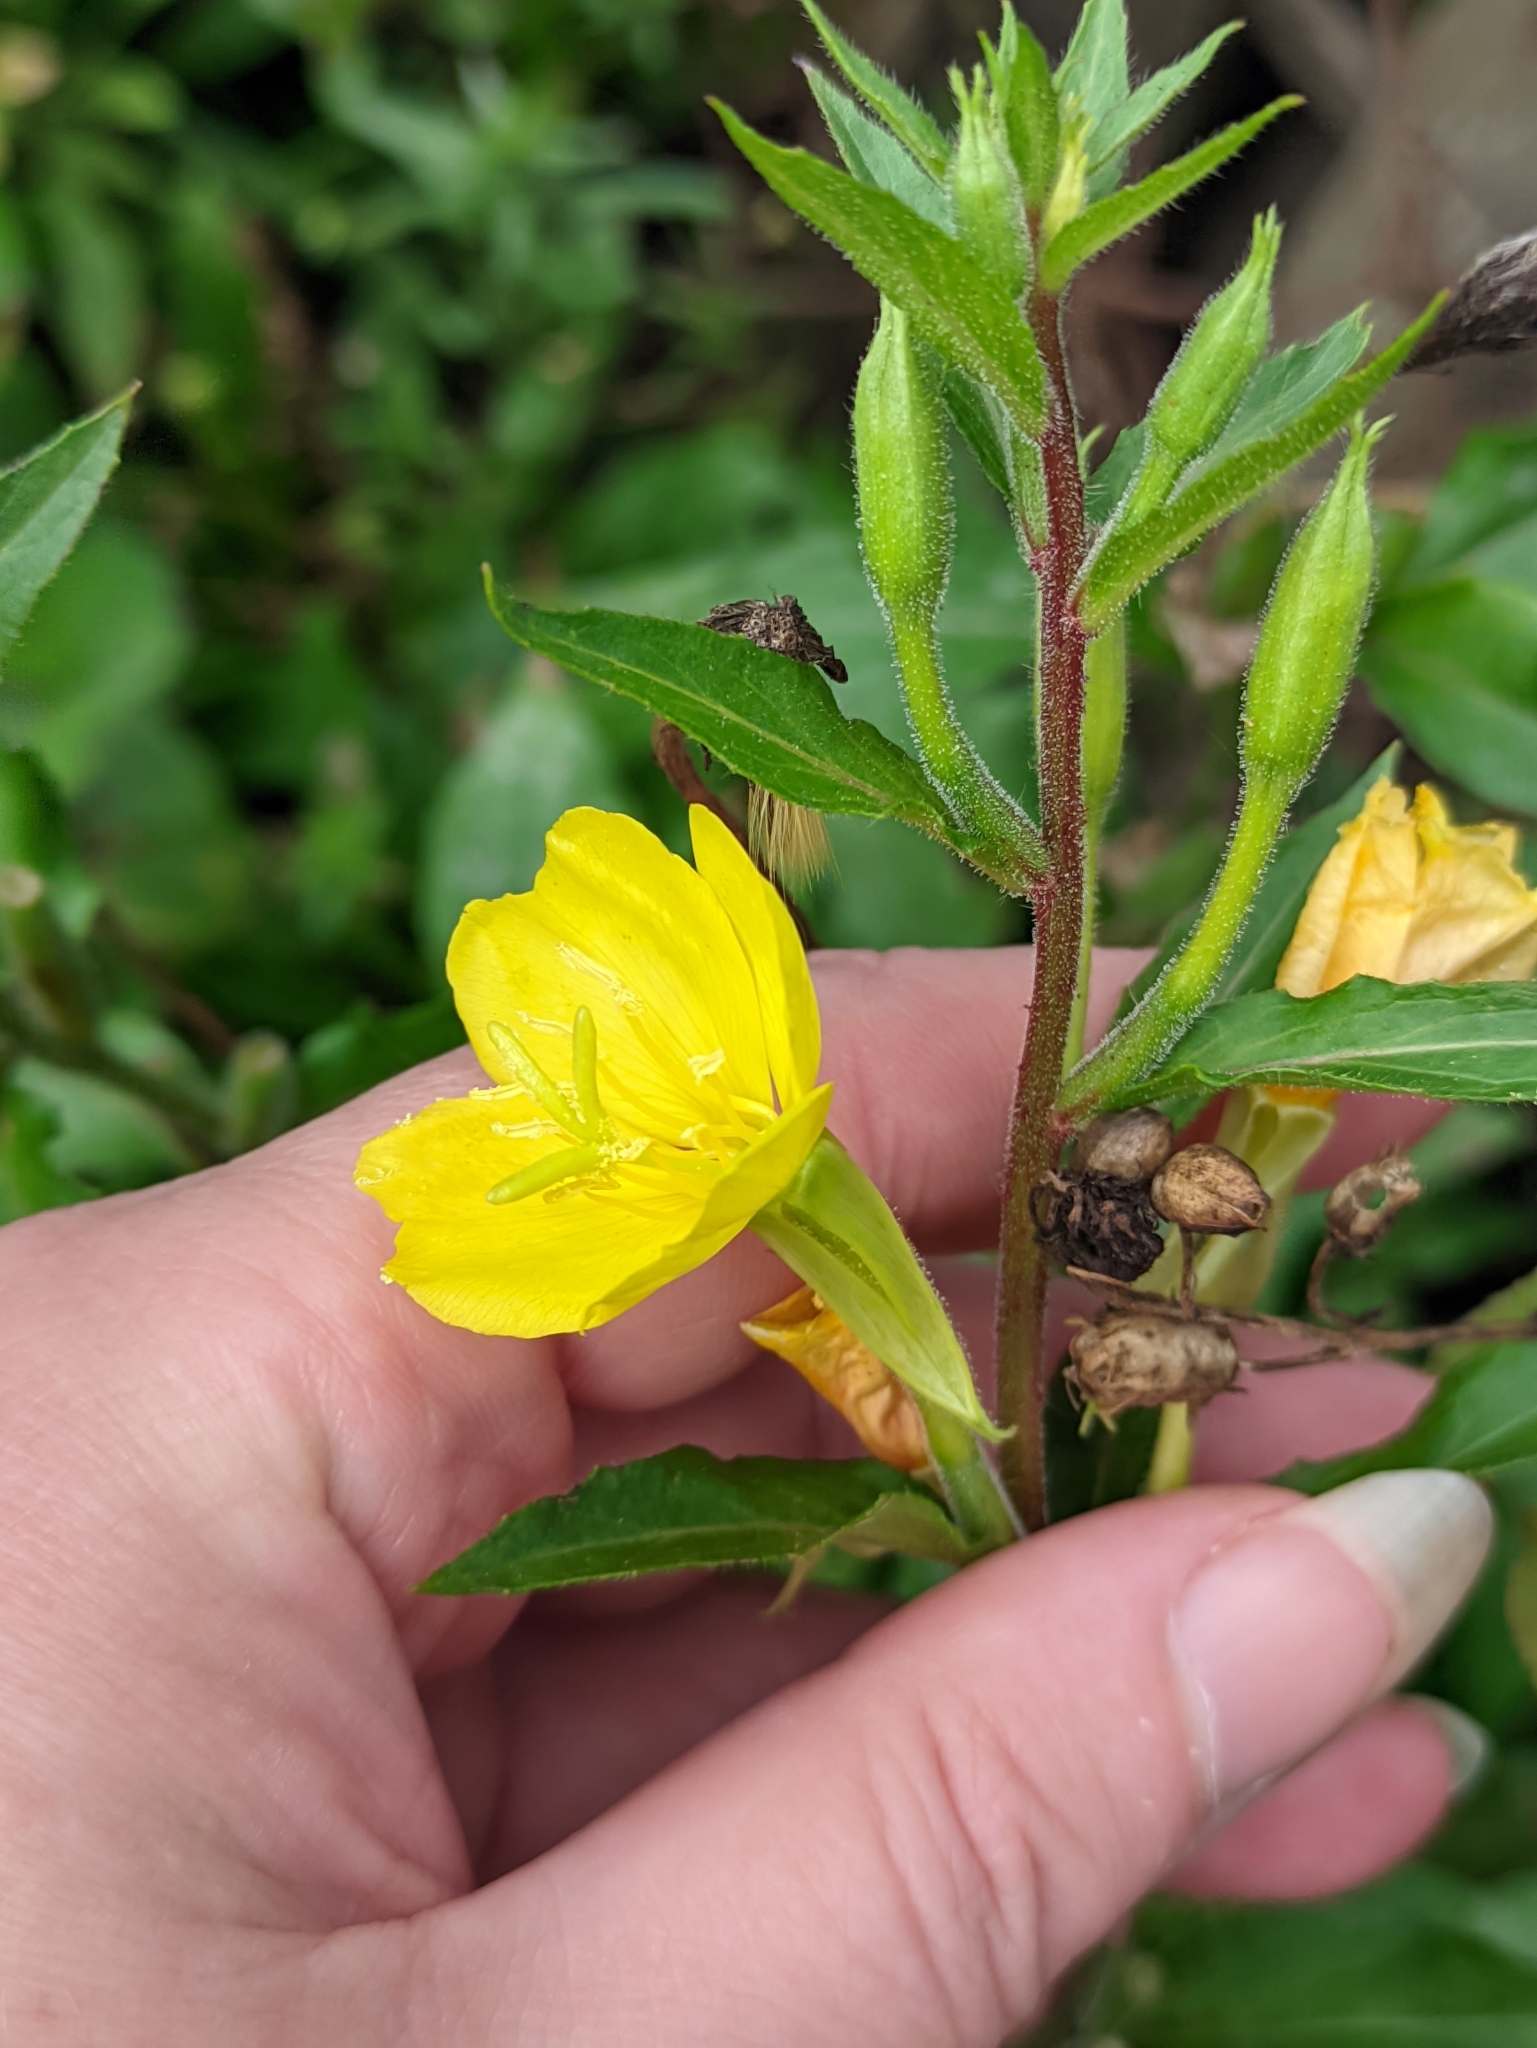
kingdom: Plantae
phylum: Tracheophyta
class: Magnoliopsida
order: Myrtales
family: Onagraceae
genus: Oenothera
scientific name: Oenothera rubricaulis
